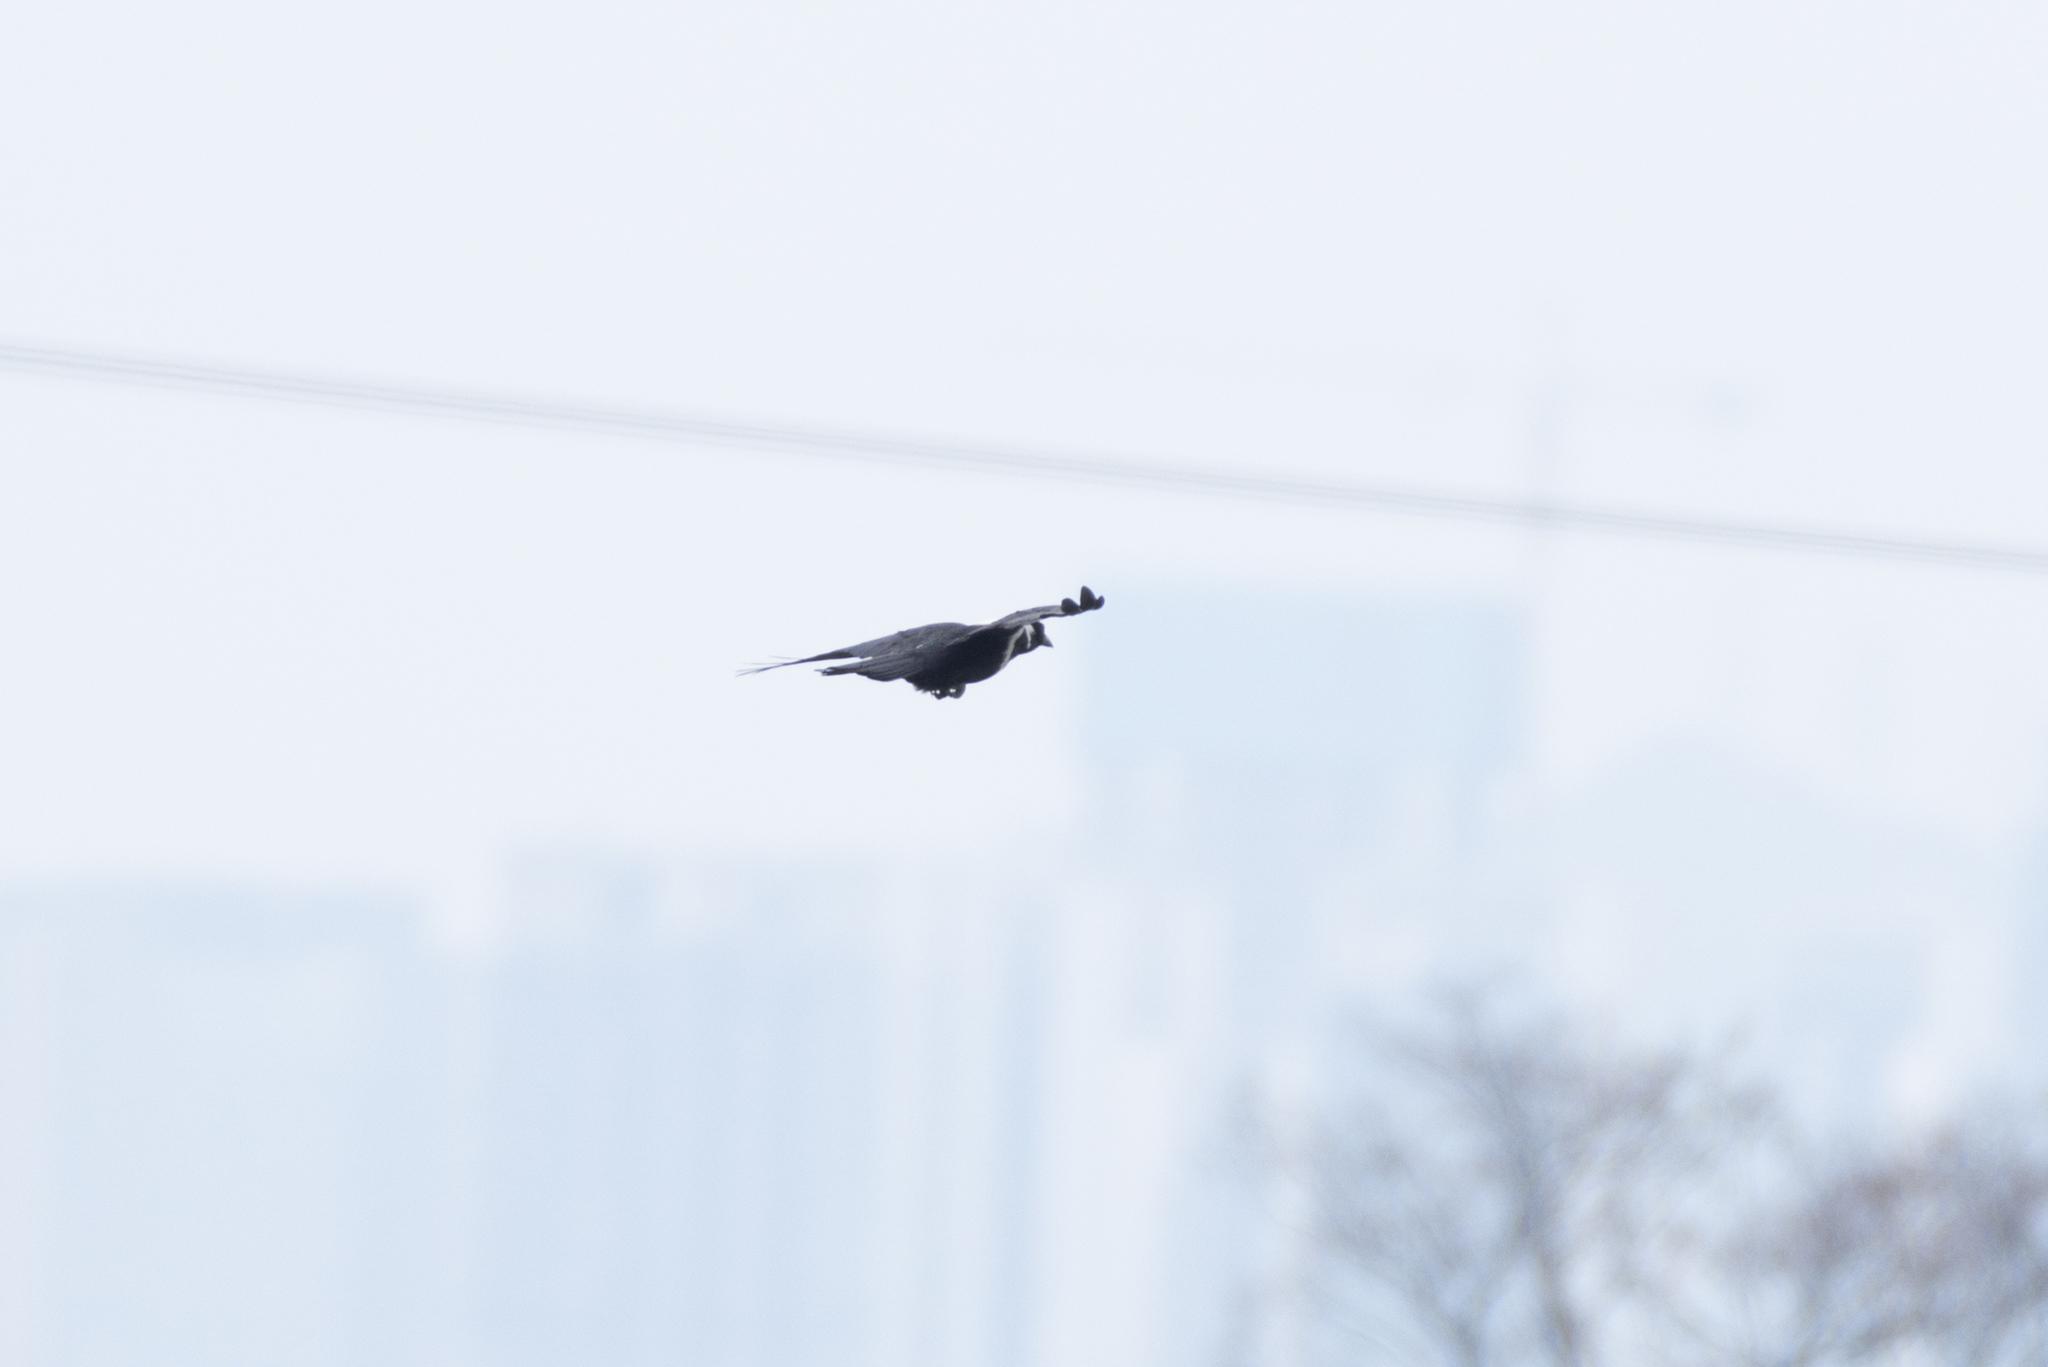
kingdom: Animalia
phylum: Chordata
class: Aves
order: Passeriformes
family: Corvidae
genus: Corvus
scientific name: Corvus pectoralis
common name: Collared crow
